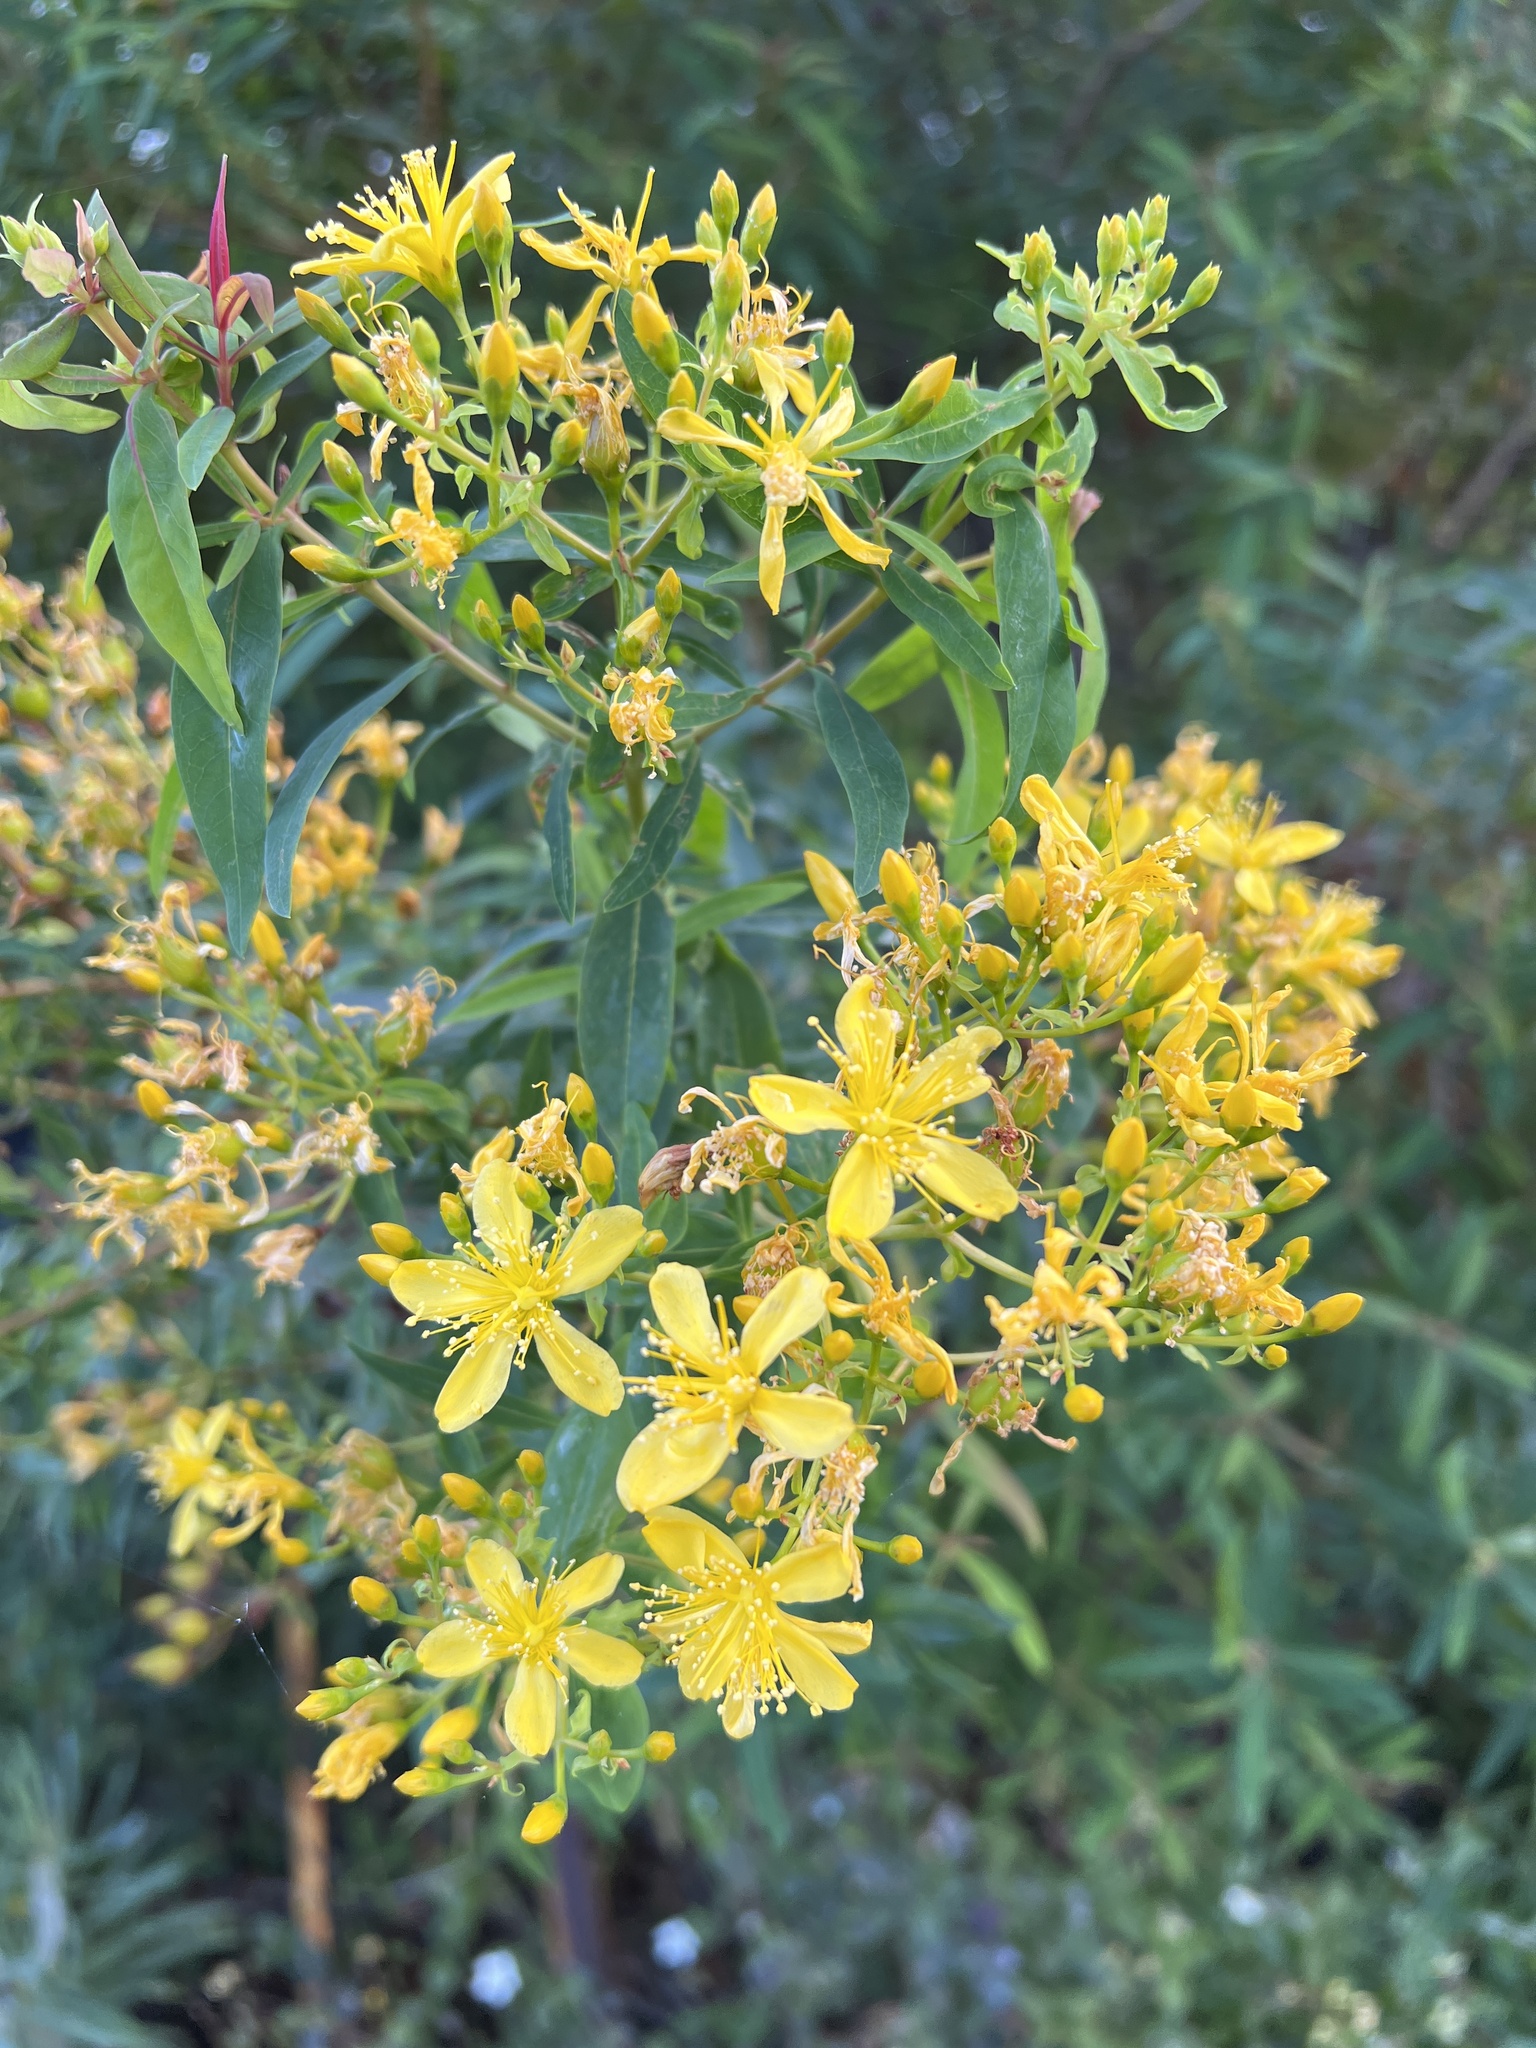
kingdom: Plantae
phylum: Tracheophyta
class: Magnoliopsida
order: Malpighiales
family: Hypericaceae
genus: Hypericum
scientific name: Hypericum canariense
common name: Canary island st. johnswort
